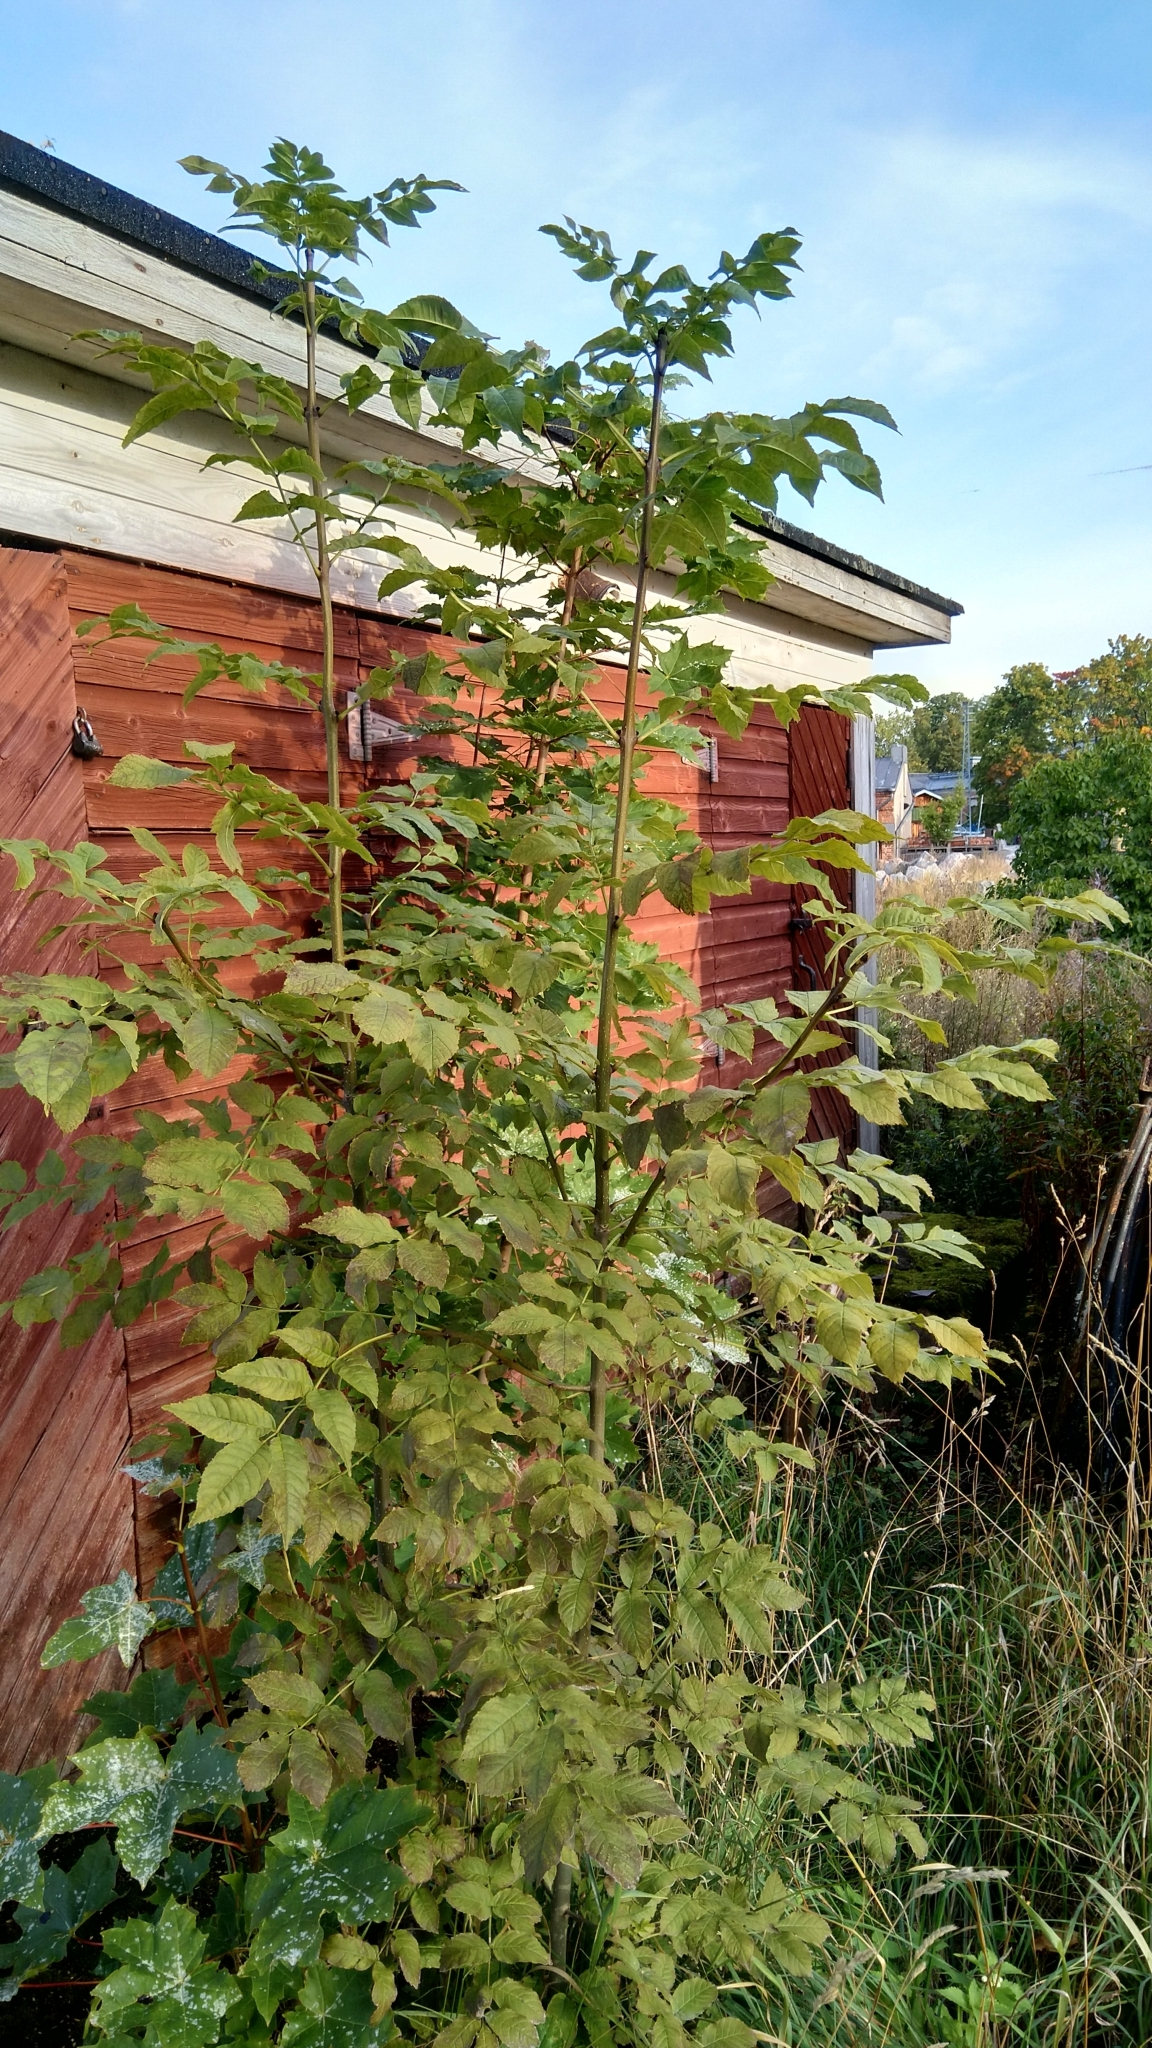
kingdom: Plantae
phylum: Tracheophyta
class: Magnoliopsida
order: Lamiales
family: Oleaceae
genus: Fraxinus
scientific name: Fraxinus excelsior
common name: European ash
